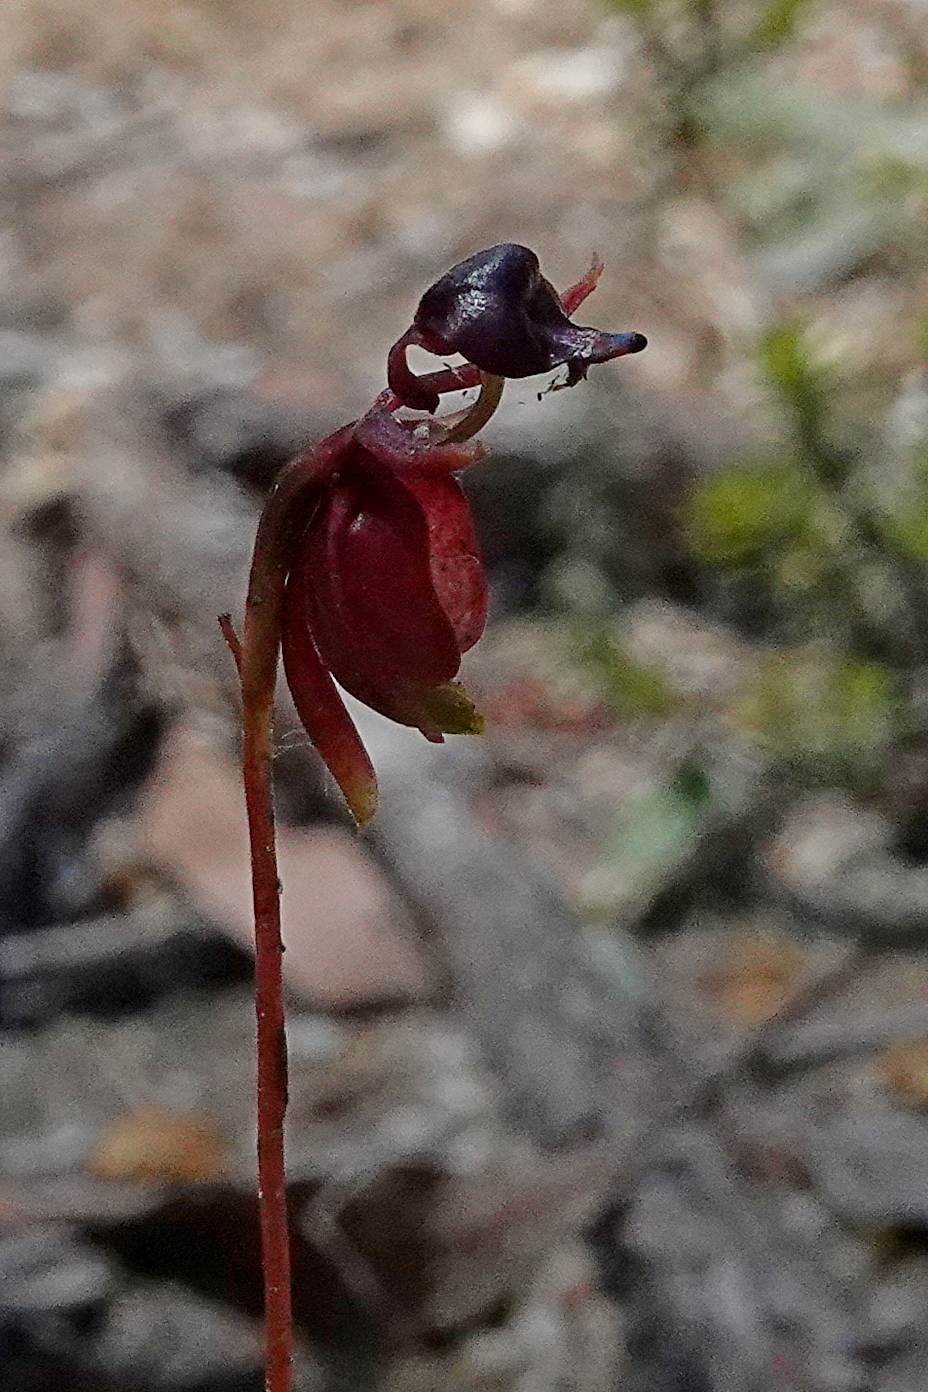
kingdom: Plantae
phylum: Tracheophyta
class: Liliopsida
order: Asparagales
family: Orchidaceae
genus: Caleana
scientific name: Caleana major
